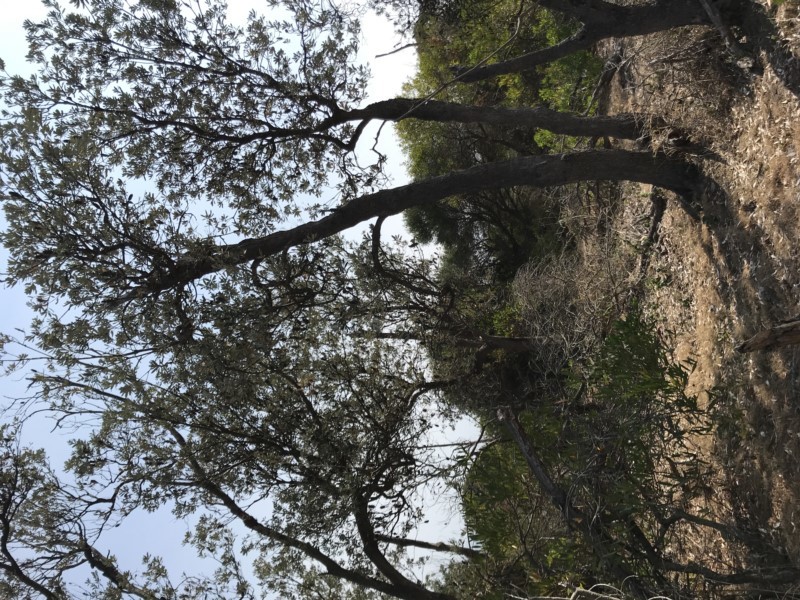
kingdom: Plantae
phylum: Tracheophyta
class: Magnoliopsida
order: Proteales
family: Proteaceae
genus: Banksia
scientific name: Banksia integrifolia
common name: White-honeysuckle
